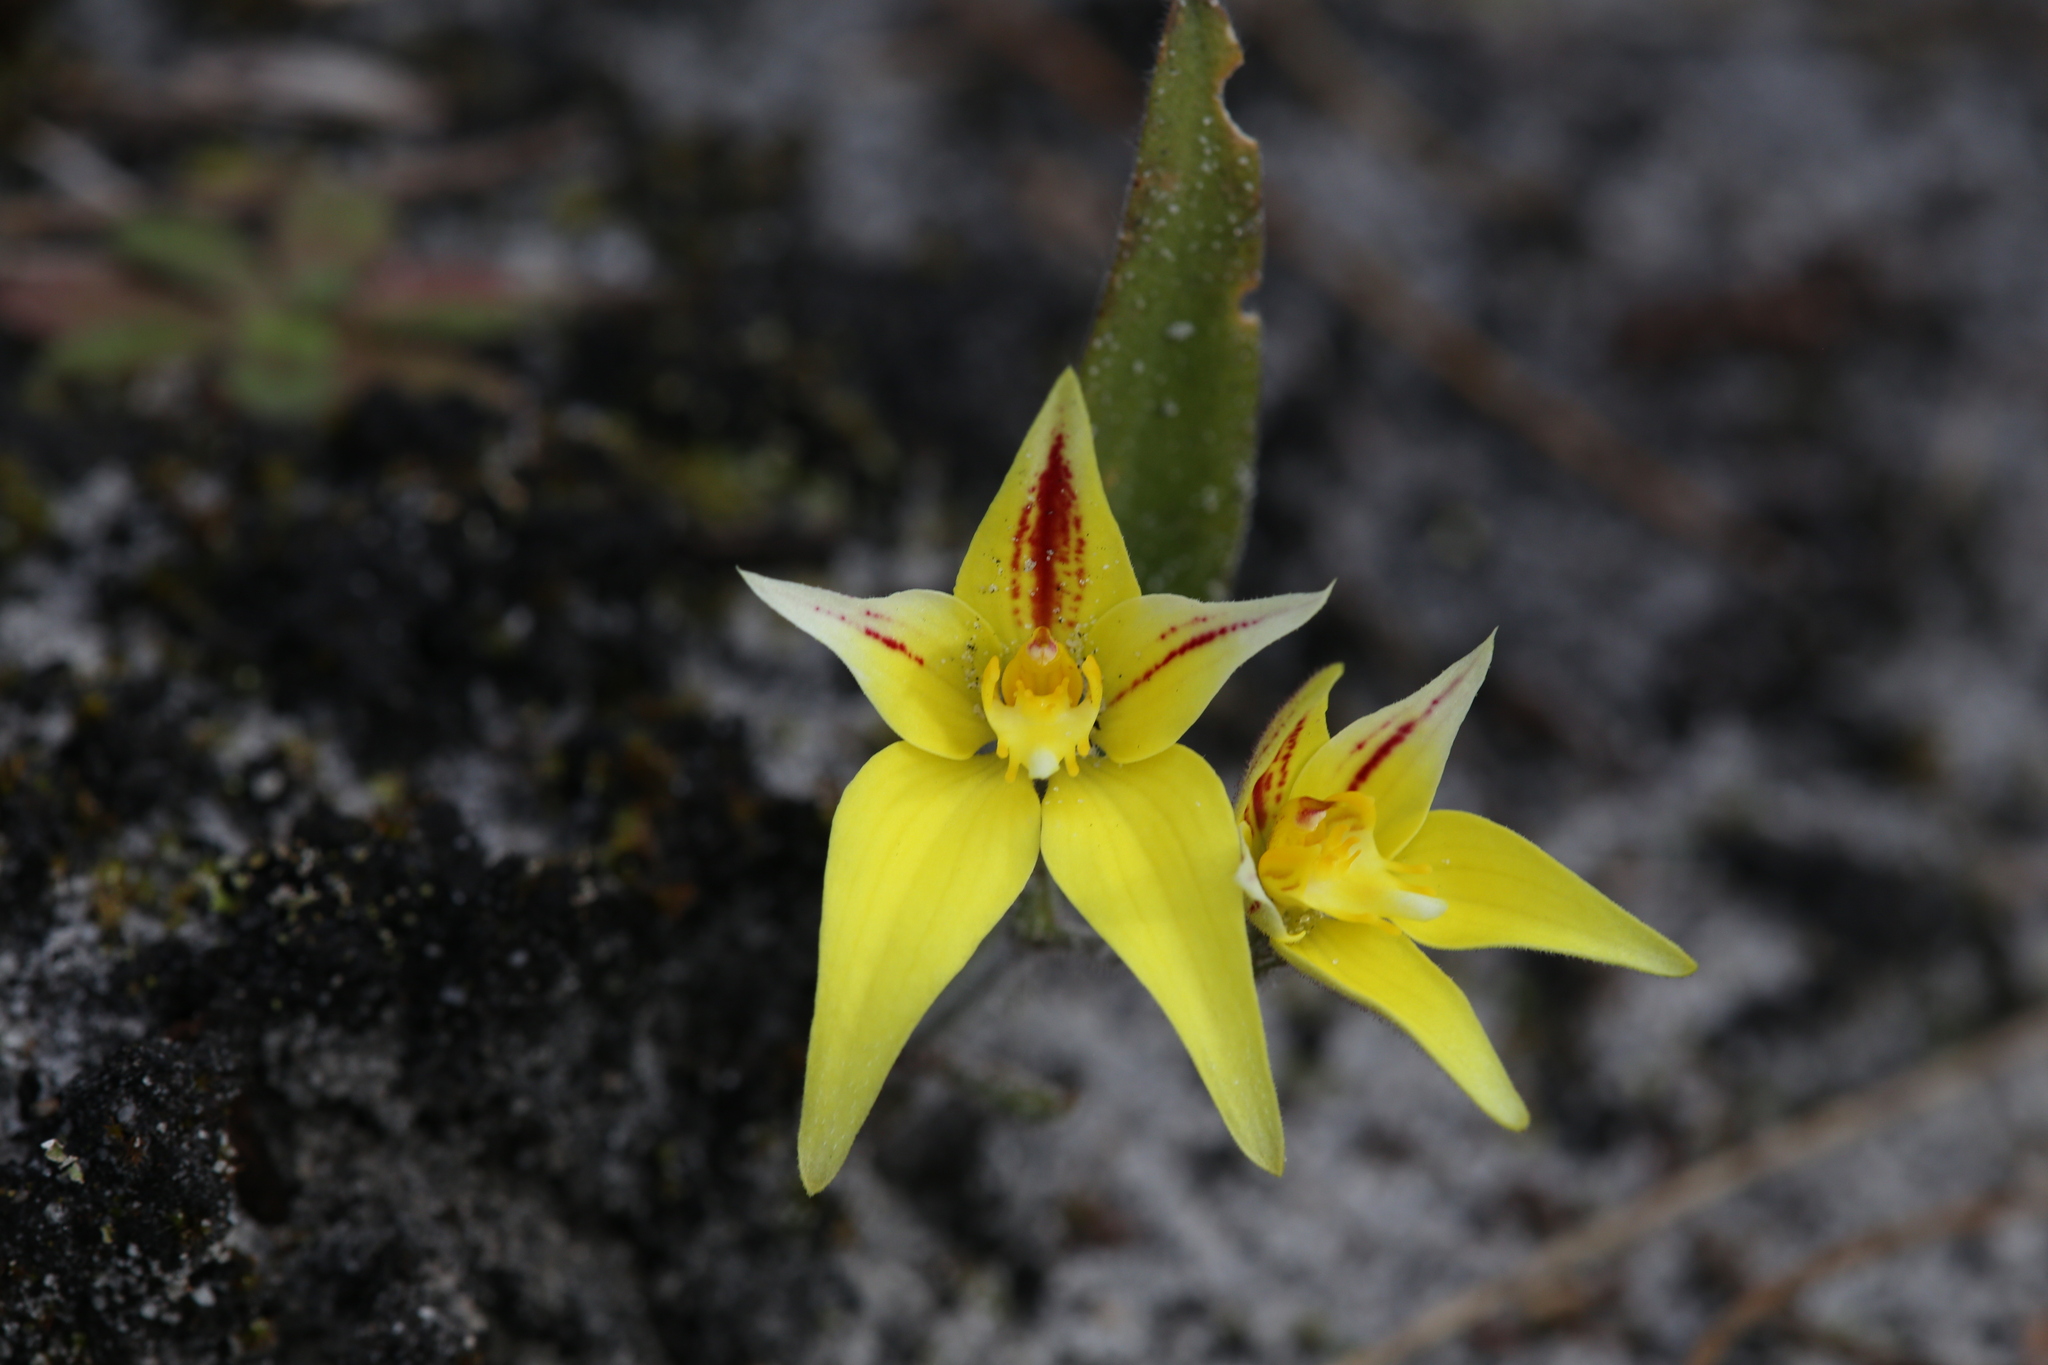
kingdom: Plantae
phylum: Tracheophyta
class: Liliopsida
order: Asparagales
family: Orchidaceae
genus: Caladenia
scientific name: Caladenia flava
